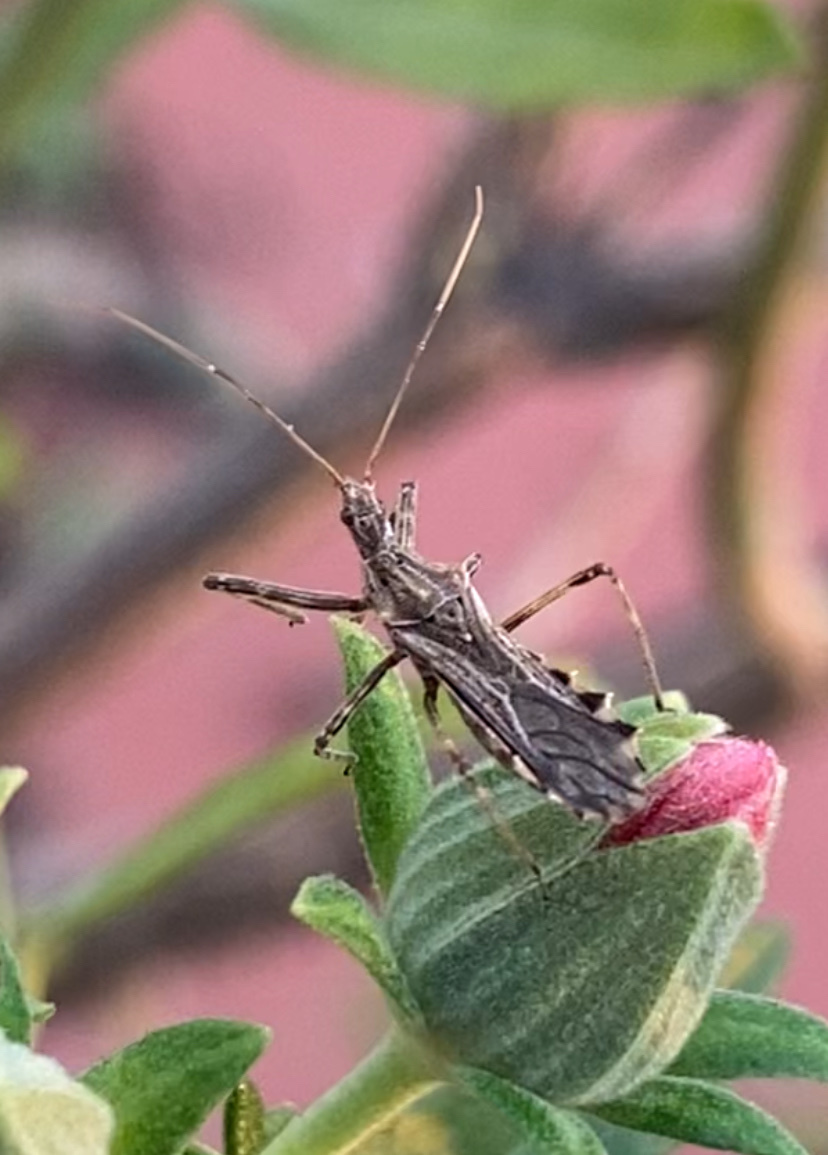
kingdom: Animalia
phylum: Arthropoda
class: Insecta
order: Hemiptera
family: Reduviidae
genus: Atrachelus
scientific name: Atrachelus cinereus
